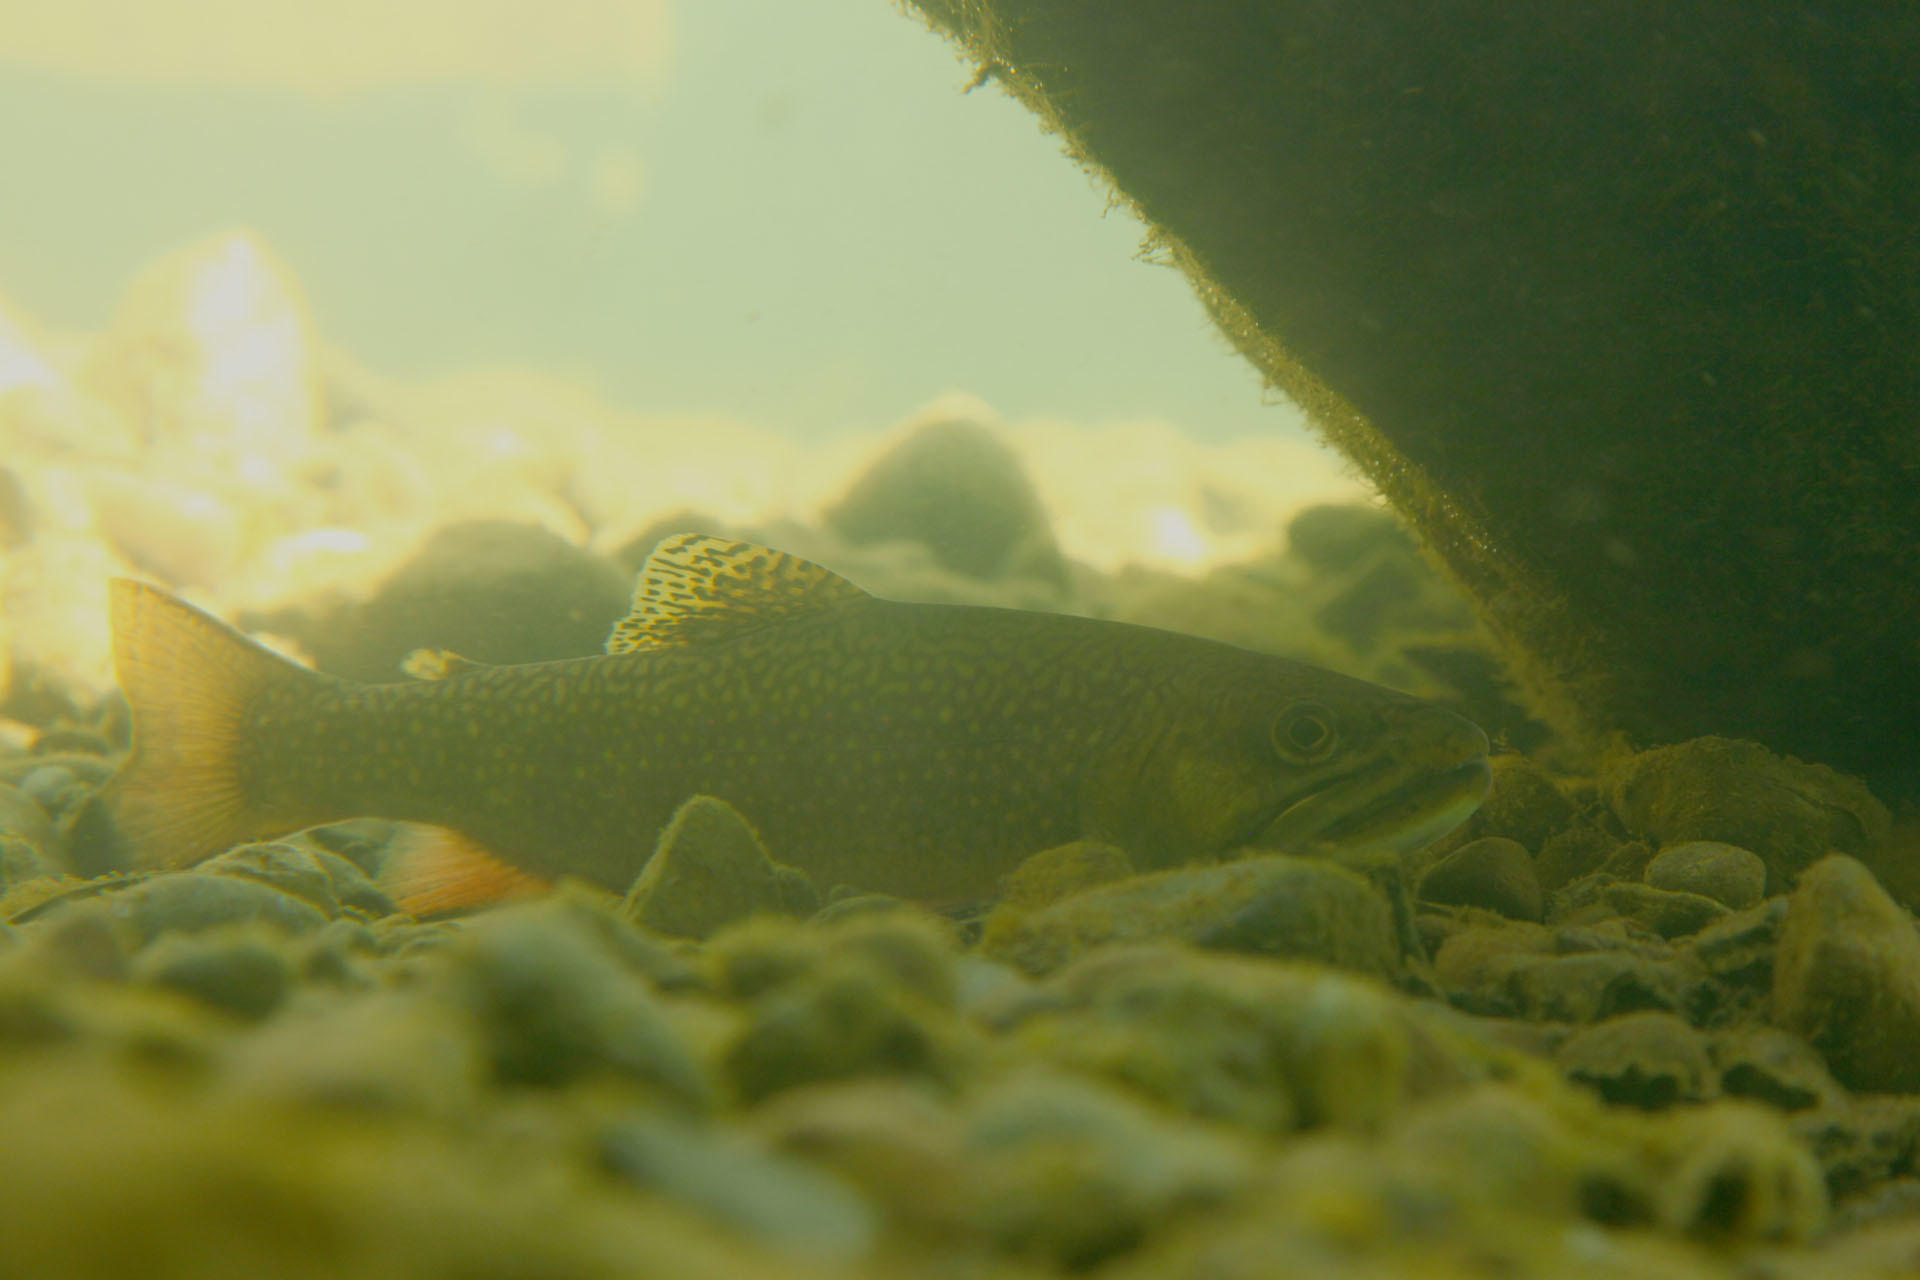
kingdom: Animalia
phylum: Chordata
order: Salmoniformes
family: Salmonidae
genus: Salvelinus
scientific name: Salvelinus fontinalis
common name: Brook trout
